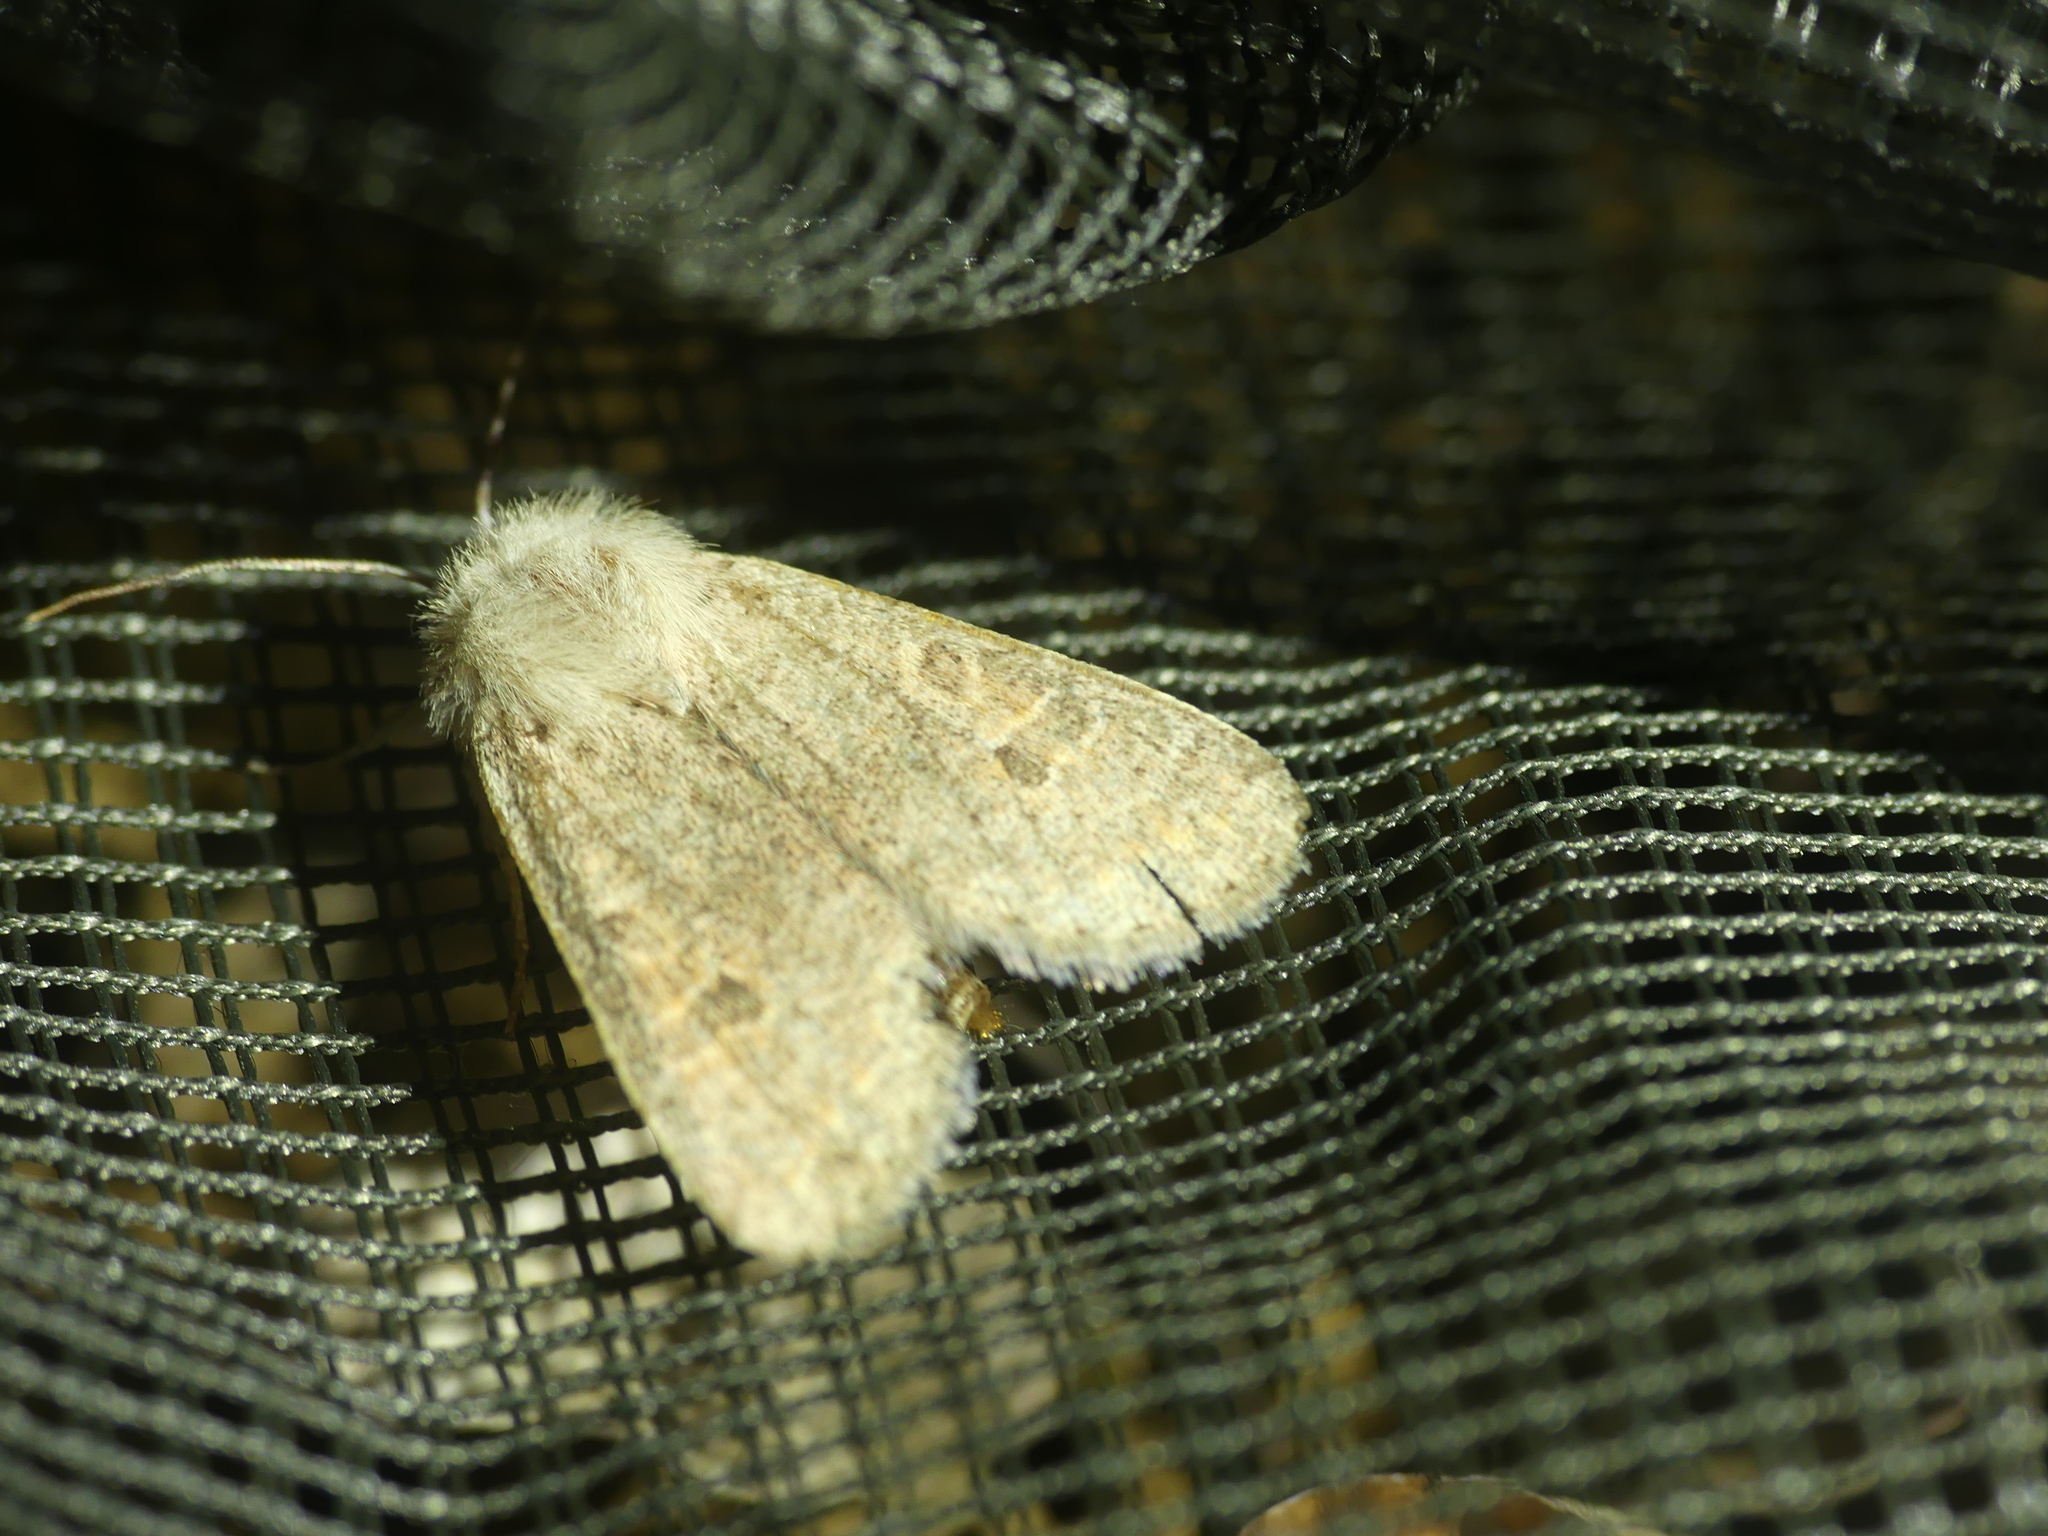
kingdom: Animalia
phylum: Arthropoda
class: Insecta
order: Lepidoptera
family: Noctuidae
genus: Orthosia
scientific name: Orthosia cruda
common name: Small quaker
